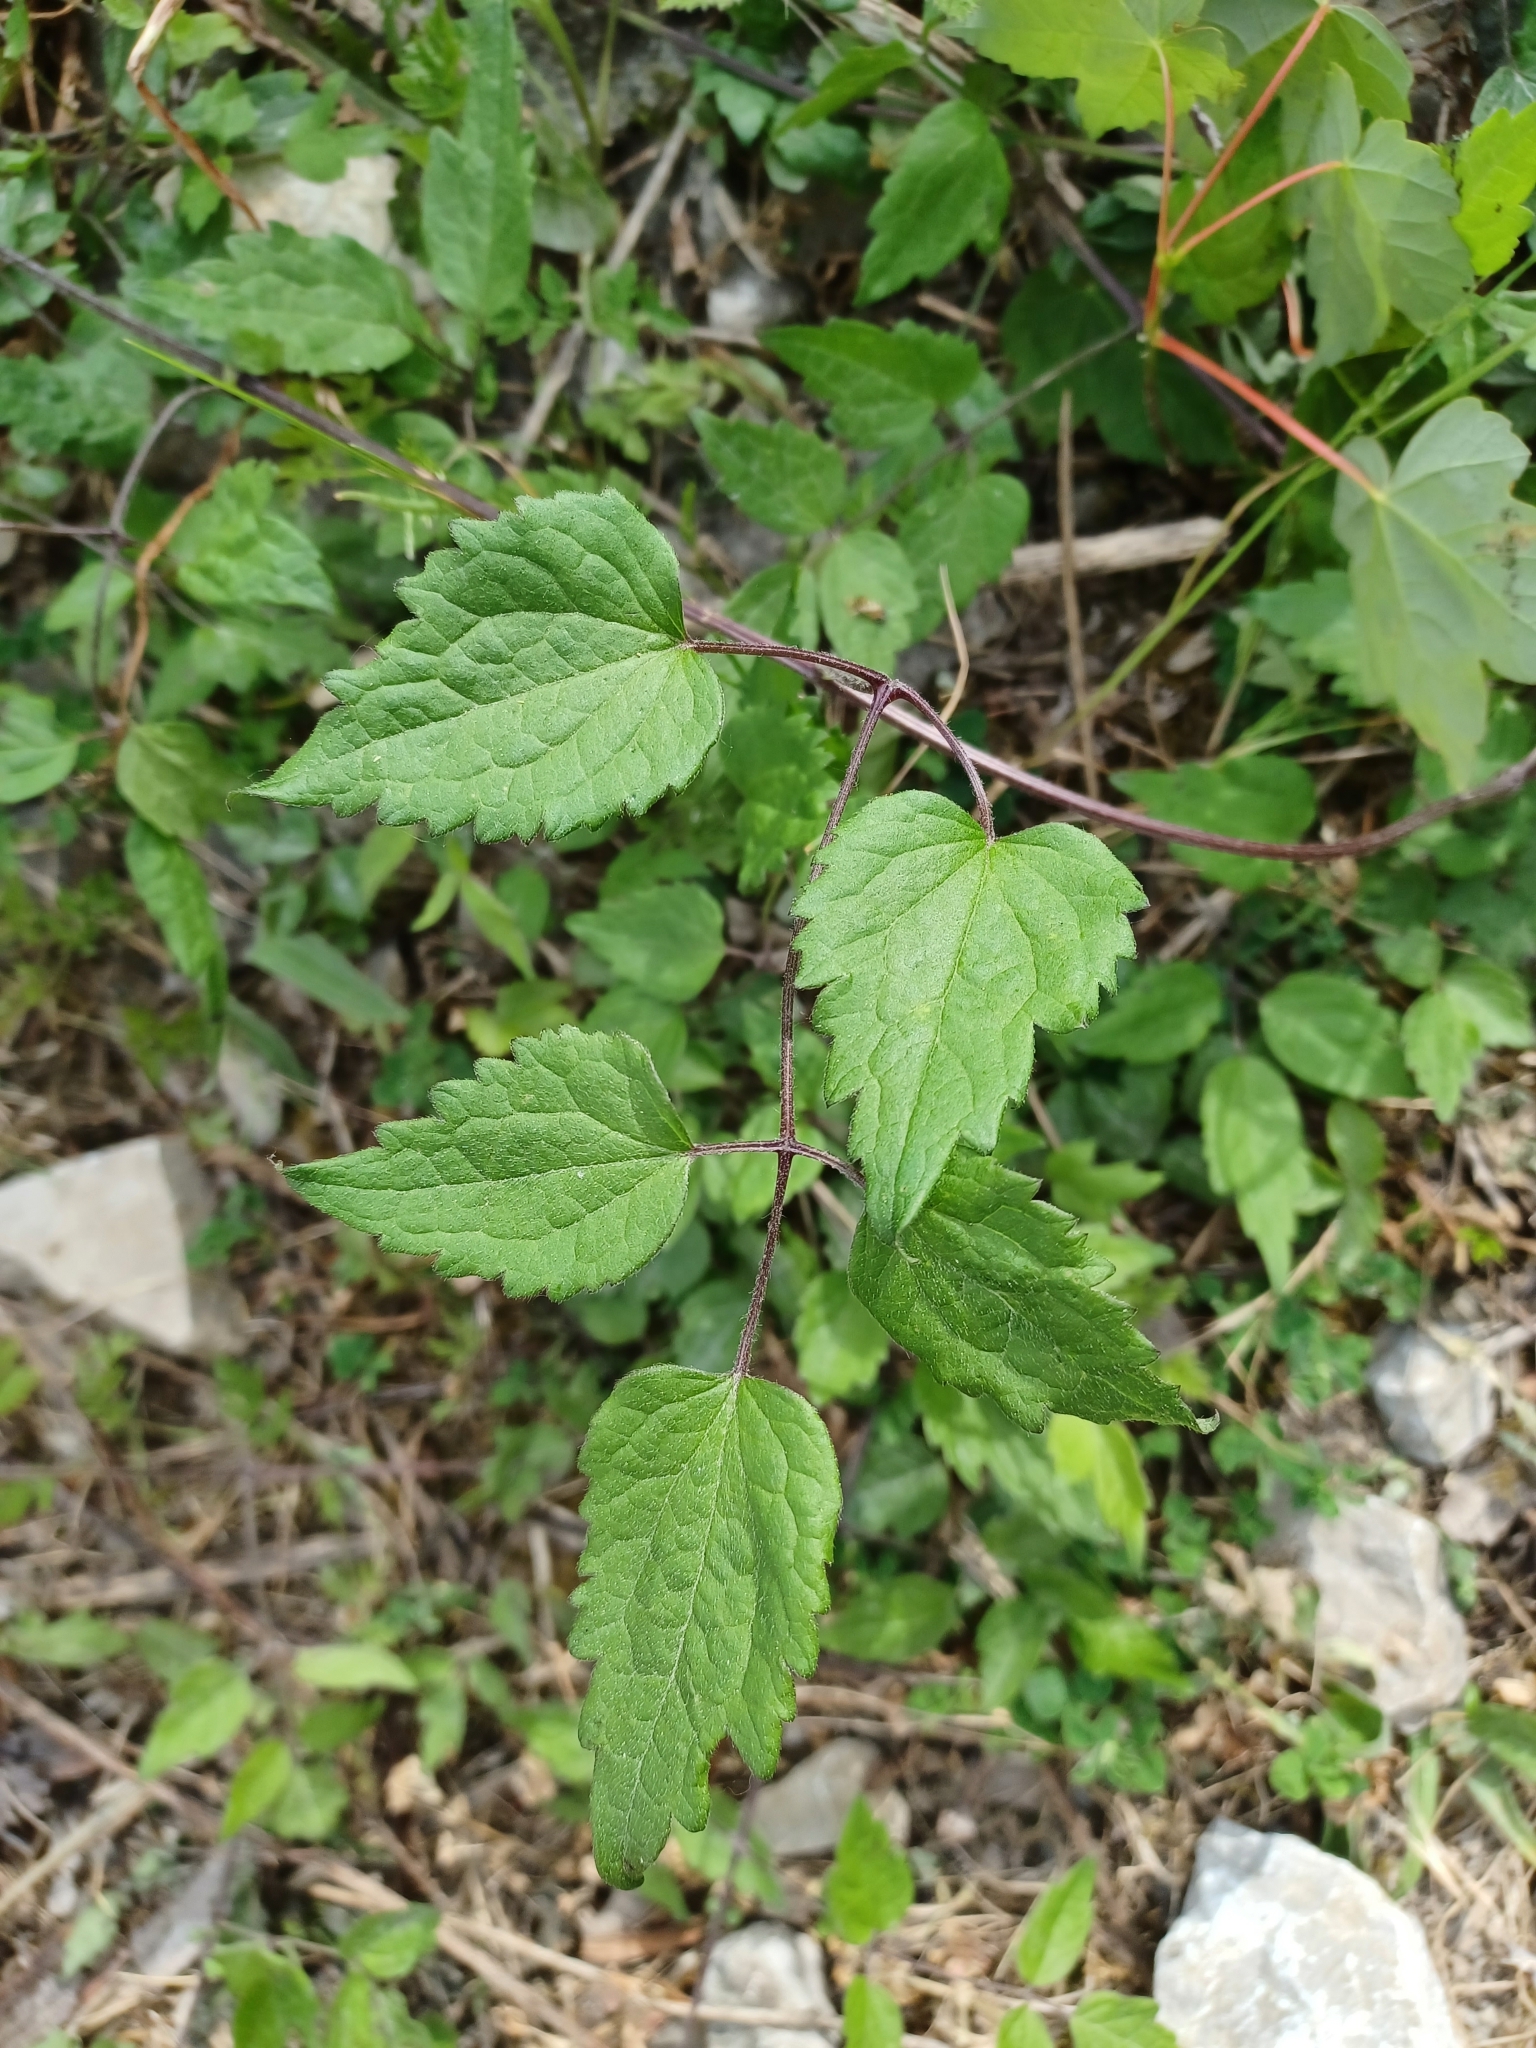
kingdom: Plantae
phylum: Tracheophyta
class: Magnoliopsida
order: Ranunculales
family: Ranunculaceae
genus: Clematis
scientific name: Clematis vitalba
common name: Evergreen clematis
